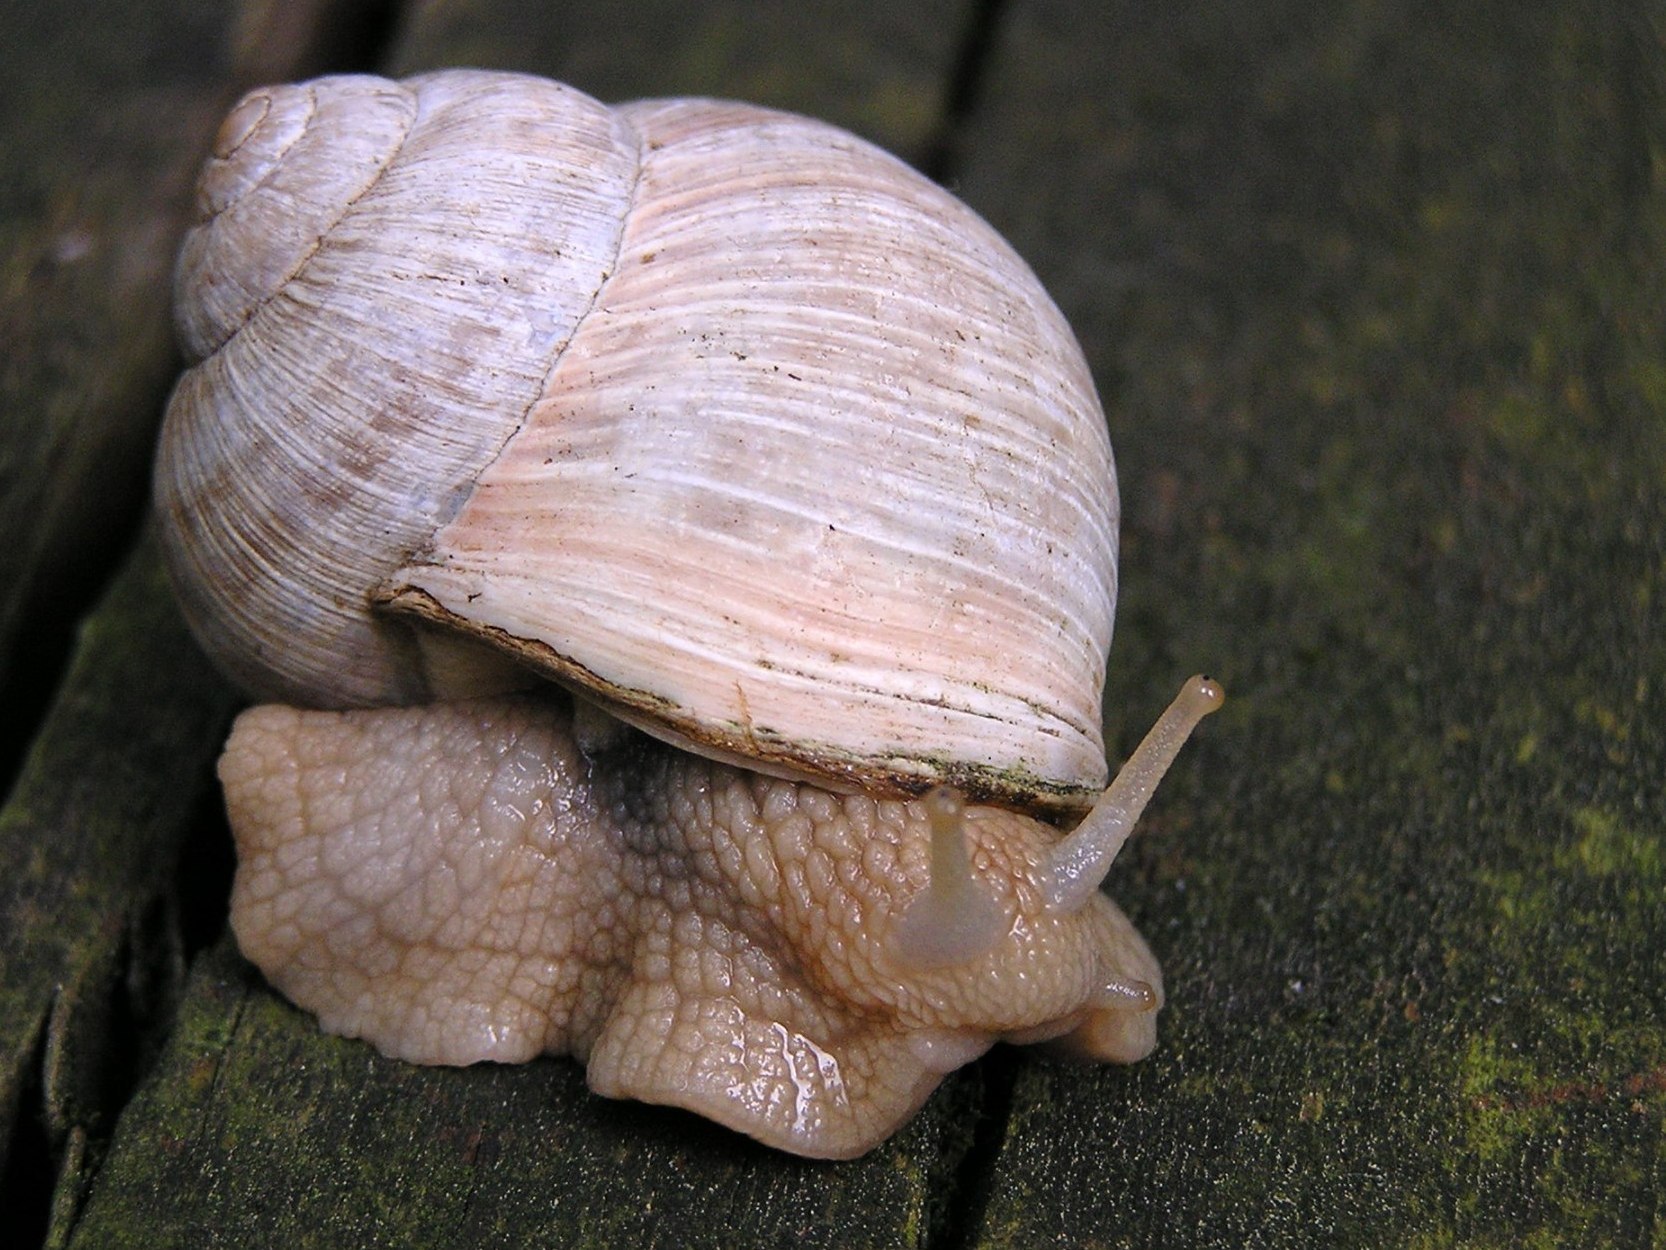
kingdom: Animalia
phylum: Mollusca
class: Gastropoda
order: Stylommatophora
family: Helicidae
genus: Helix
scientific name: Helix pomatia
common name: Roman snail
